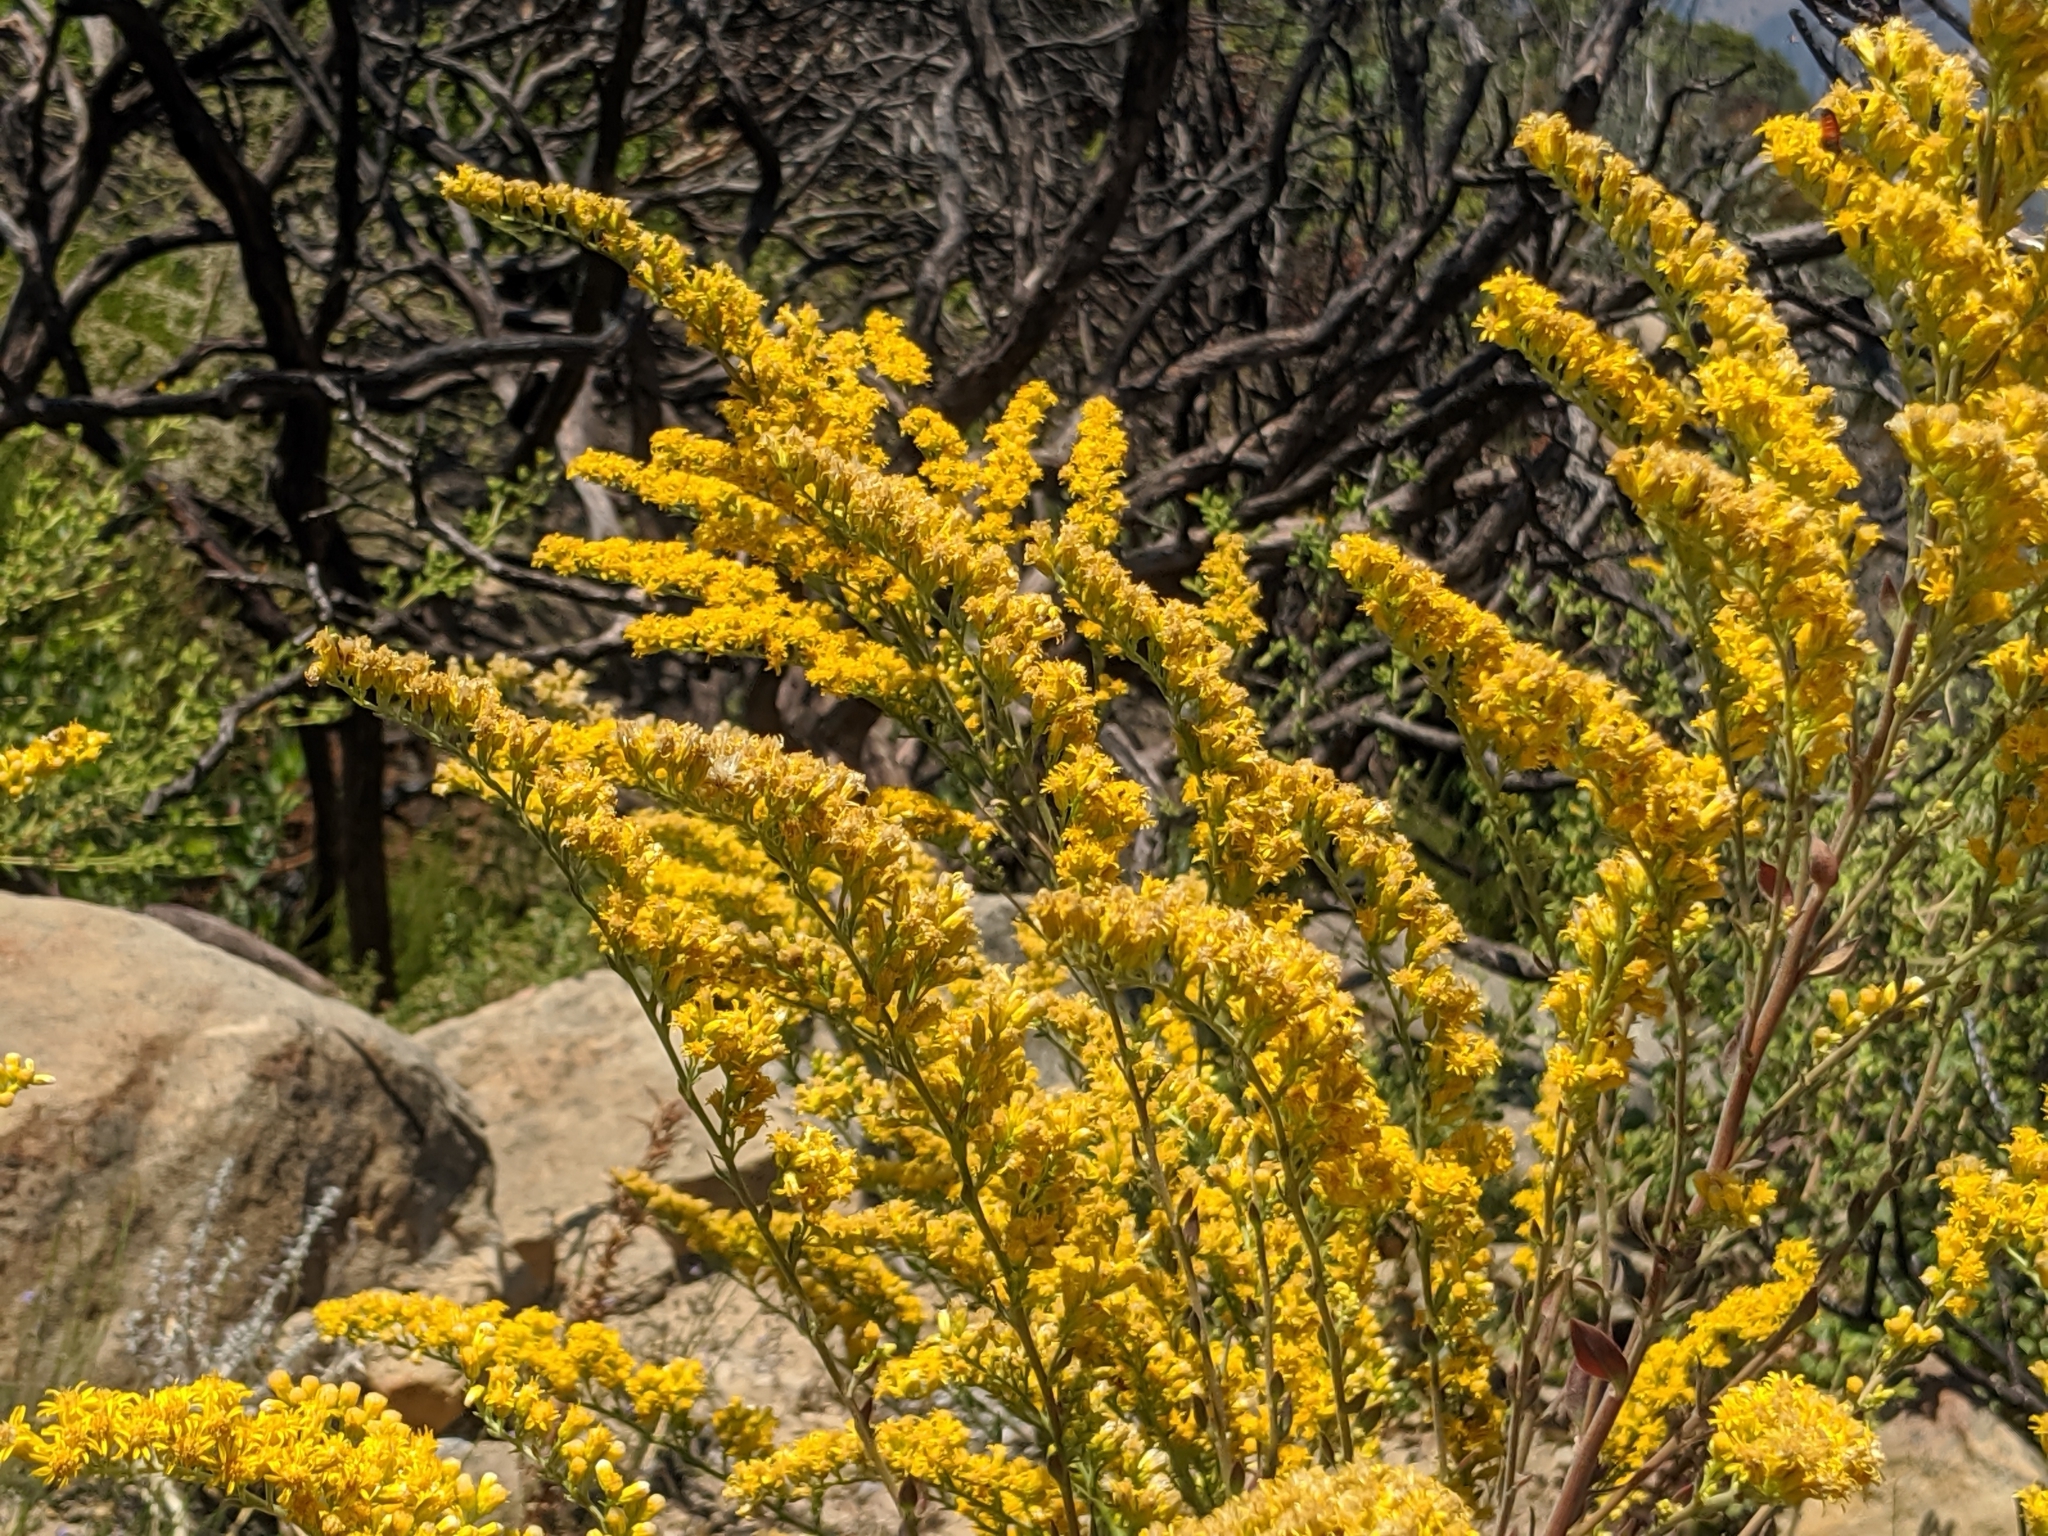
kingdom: Plantae
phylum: Tracheophyta
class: Magnoliopsida
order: Asterales
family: Asteraceae
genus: Solidago
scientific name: Solidago velutina
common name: Three-nerve goldenrod
